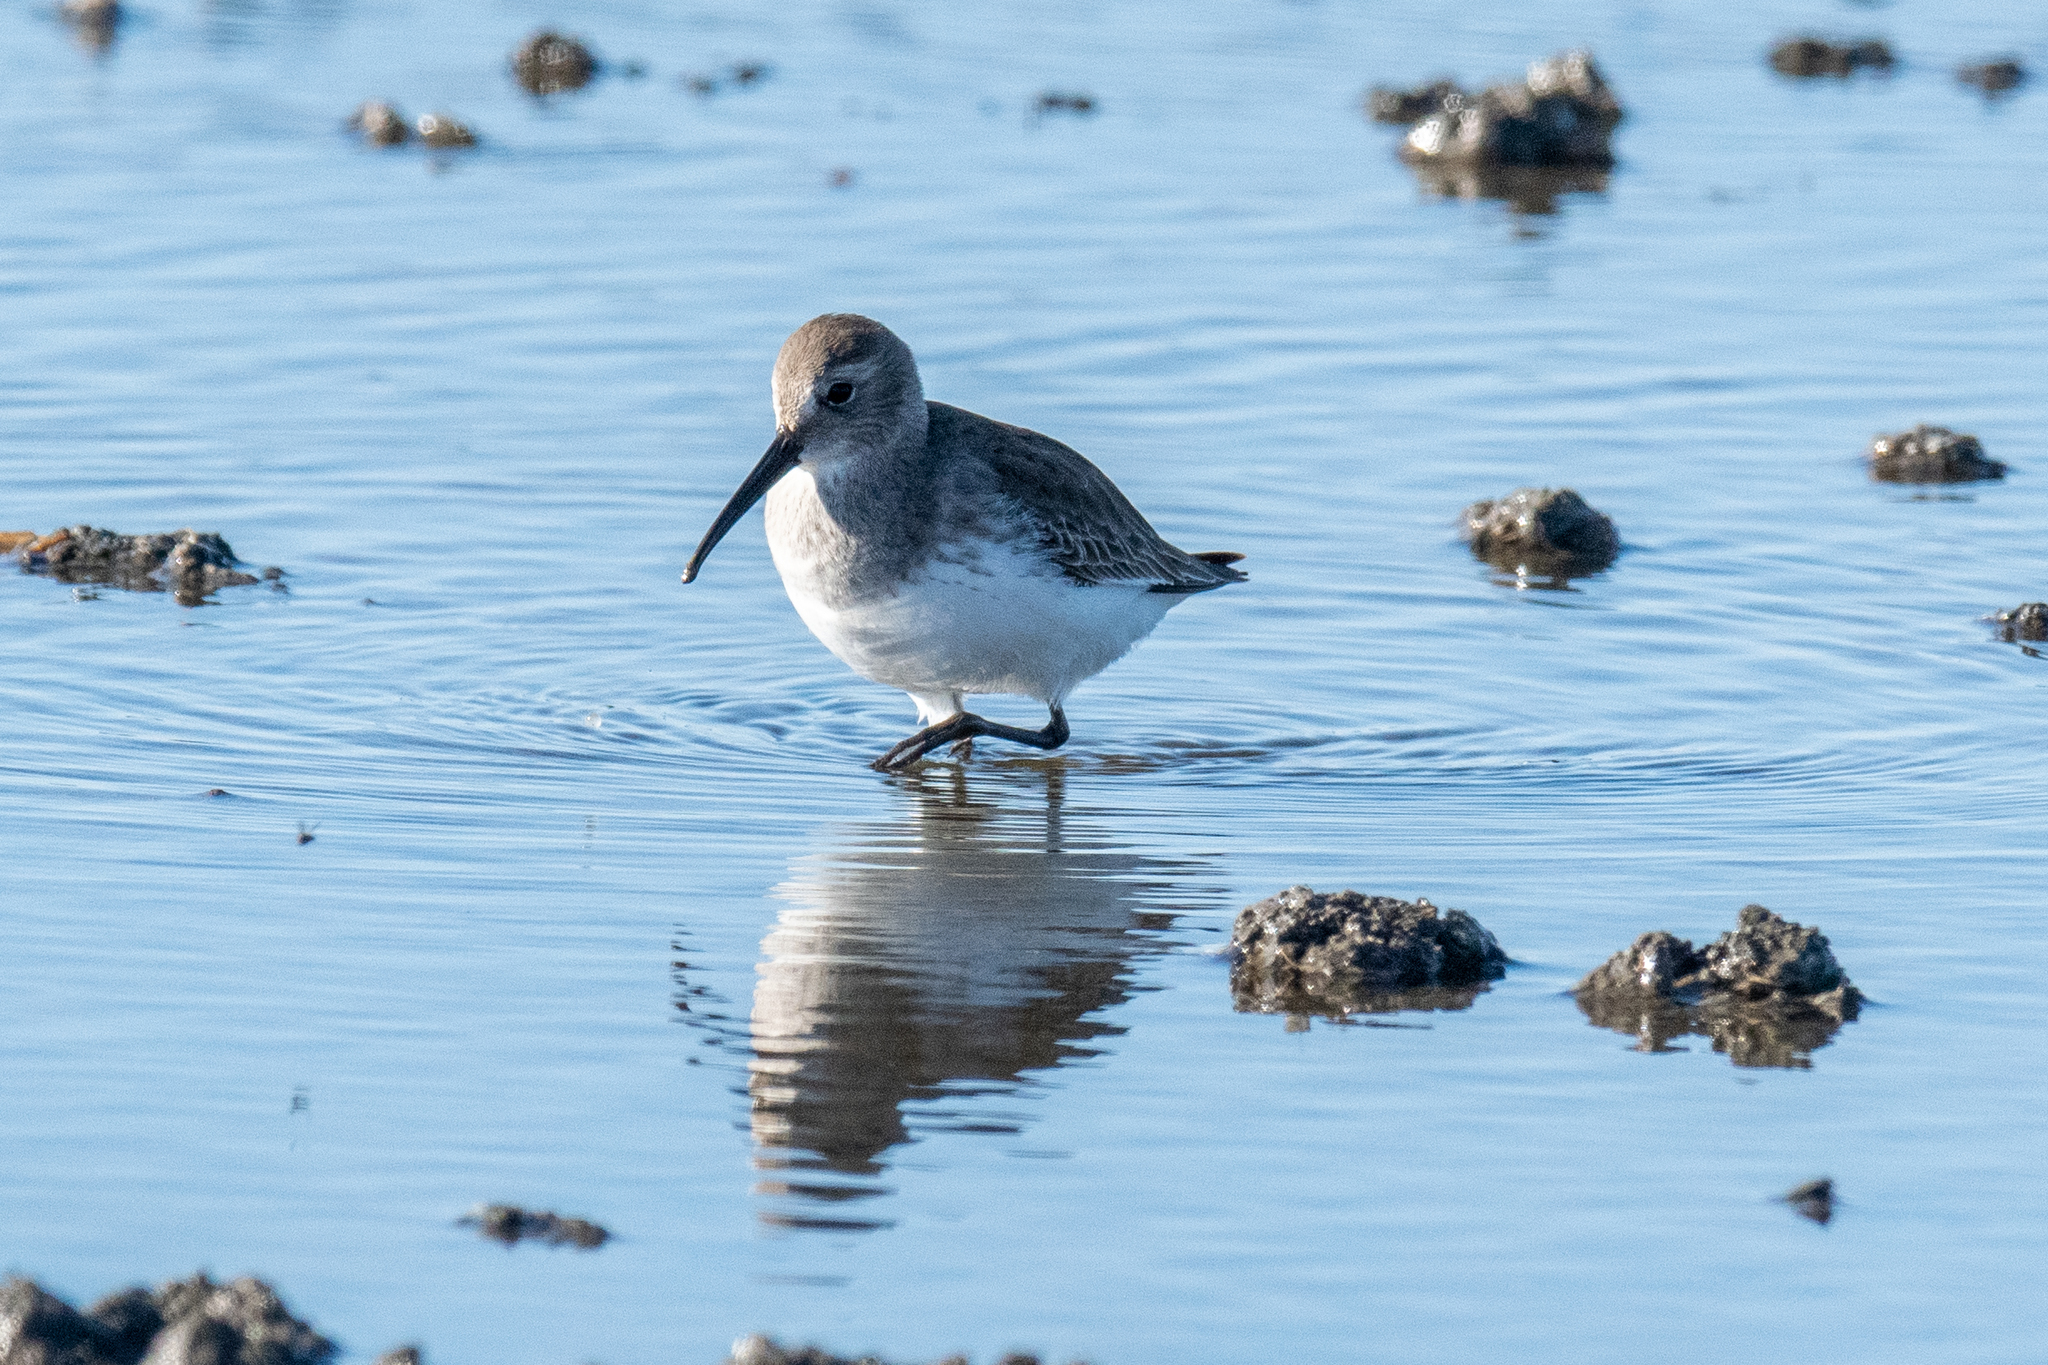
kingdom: Animalia
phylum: Chordata
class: Aves
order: Charadriiformes
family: Scolopacidae
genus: Calidris
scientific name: Calidris alpina
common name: Dunlin
